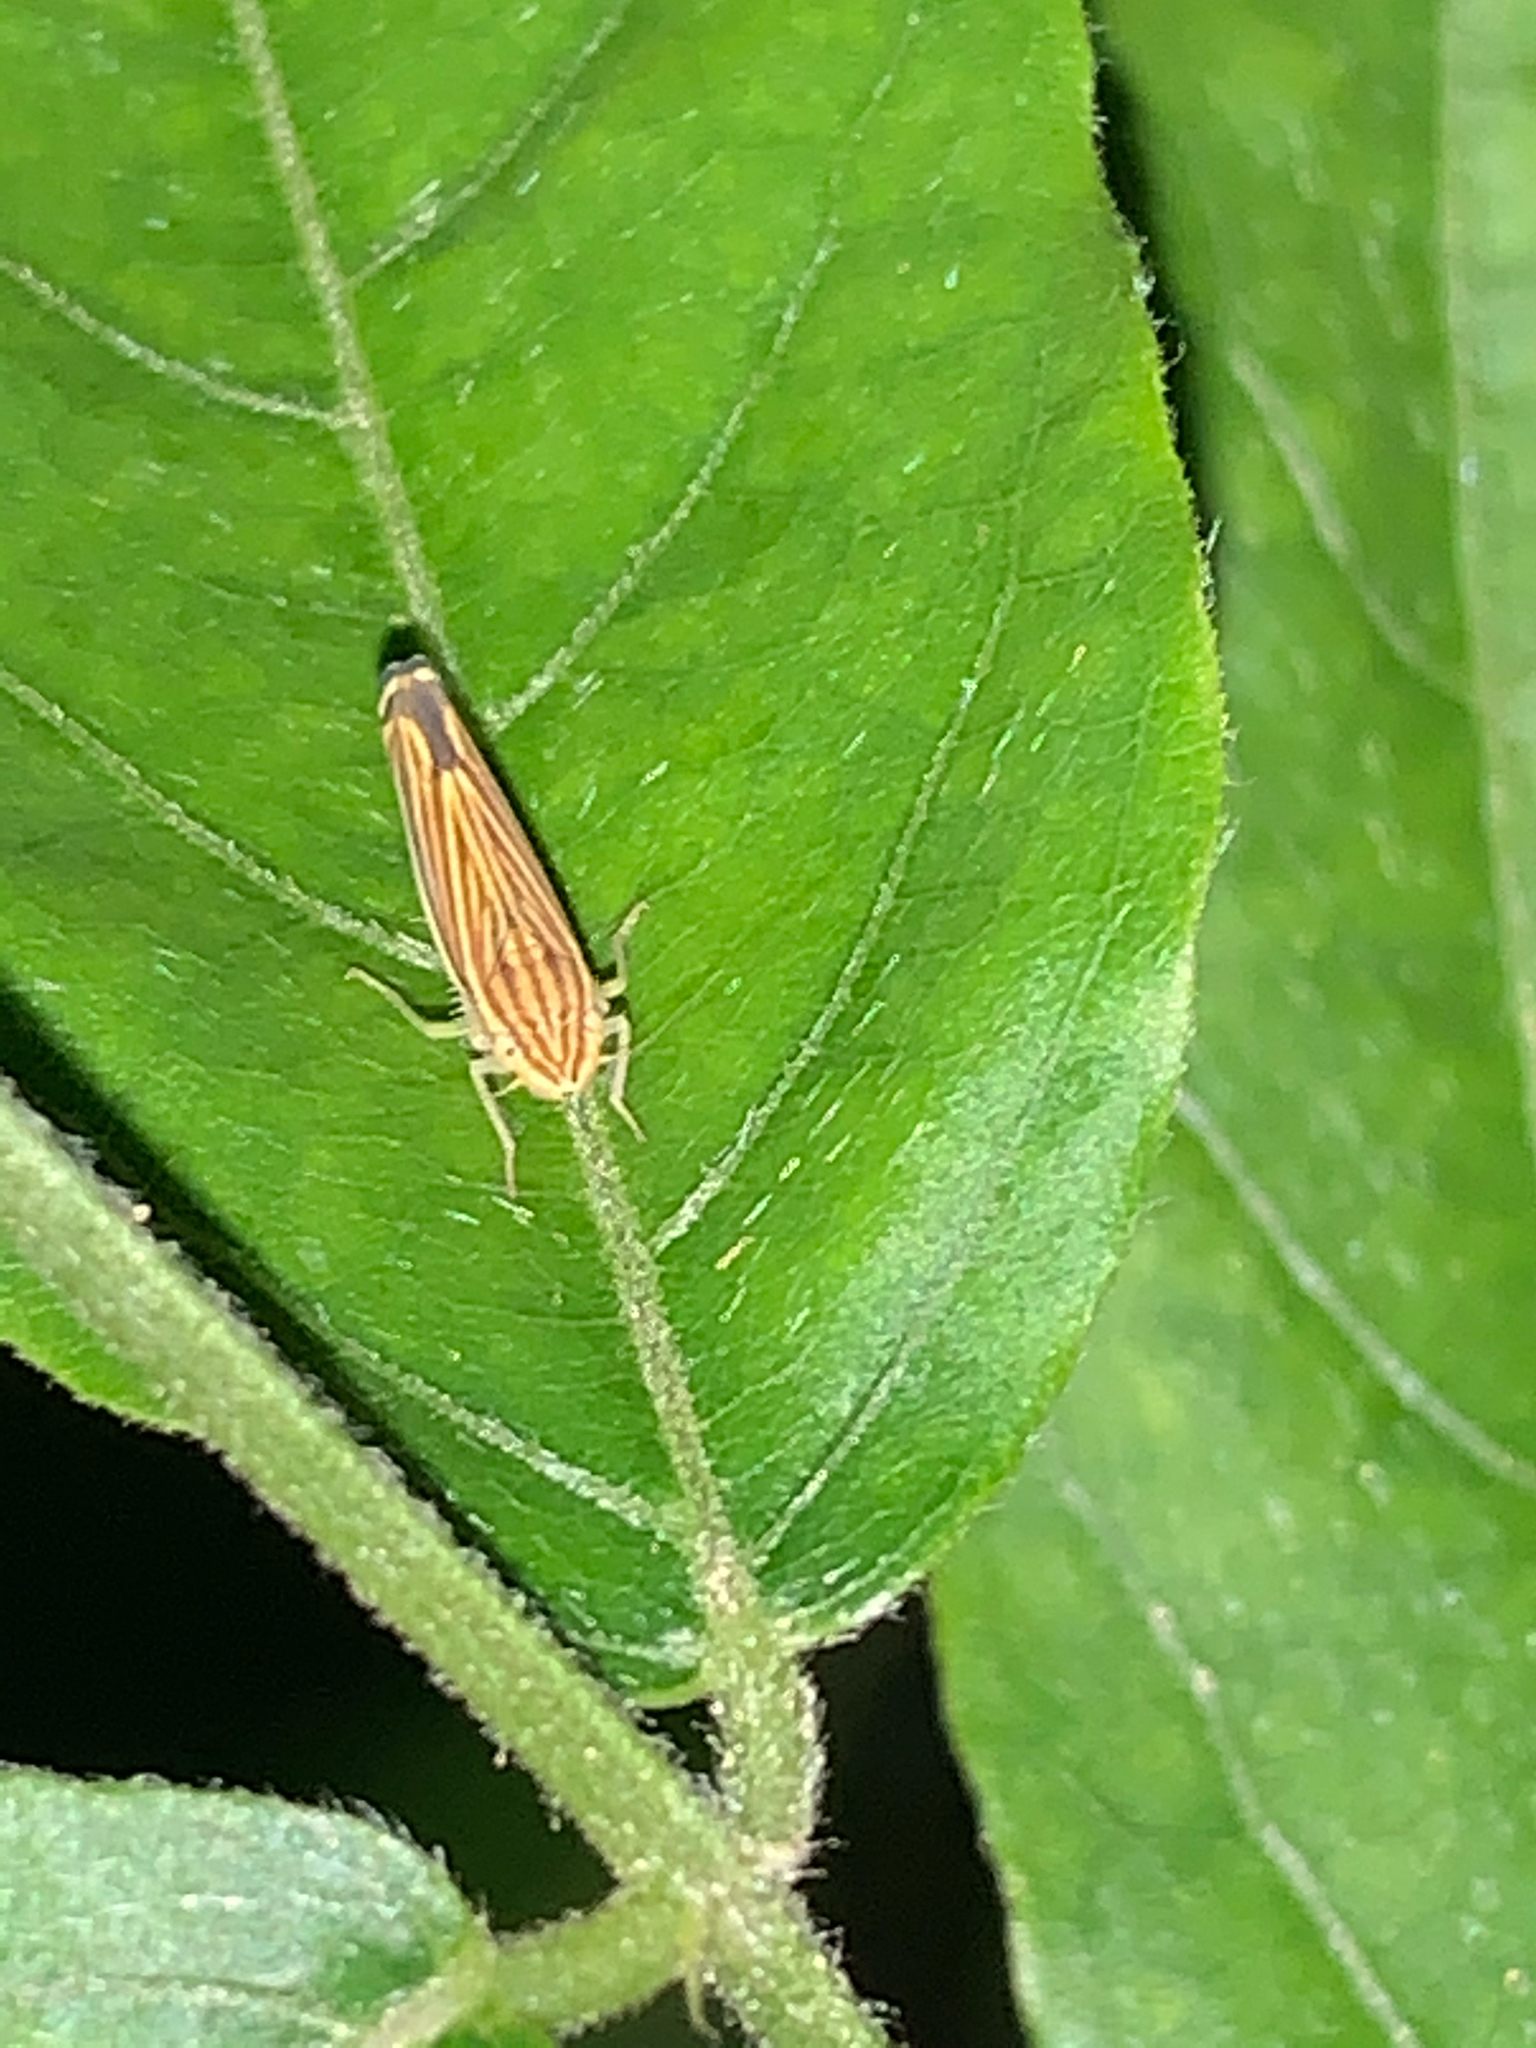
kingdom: Animalia
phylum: Arthropoda
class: Insecta
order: Hemiptera
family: Cicadellidae
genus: Sibovia
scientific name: Sibovia occatoria
